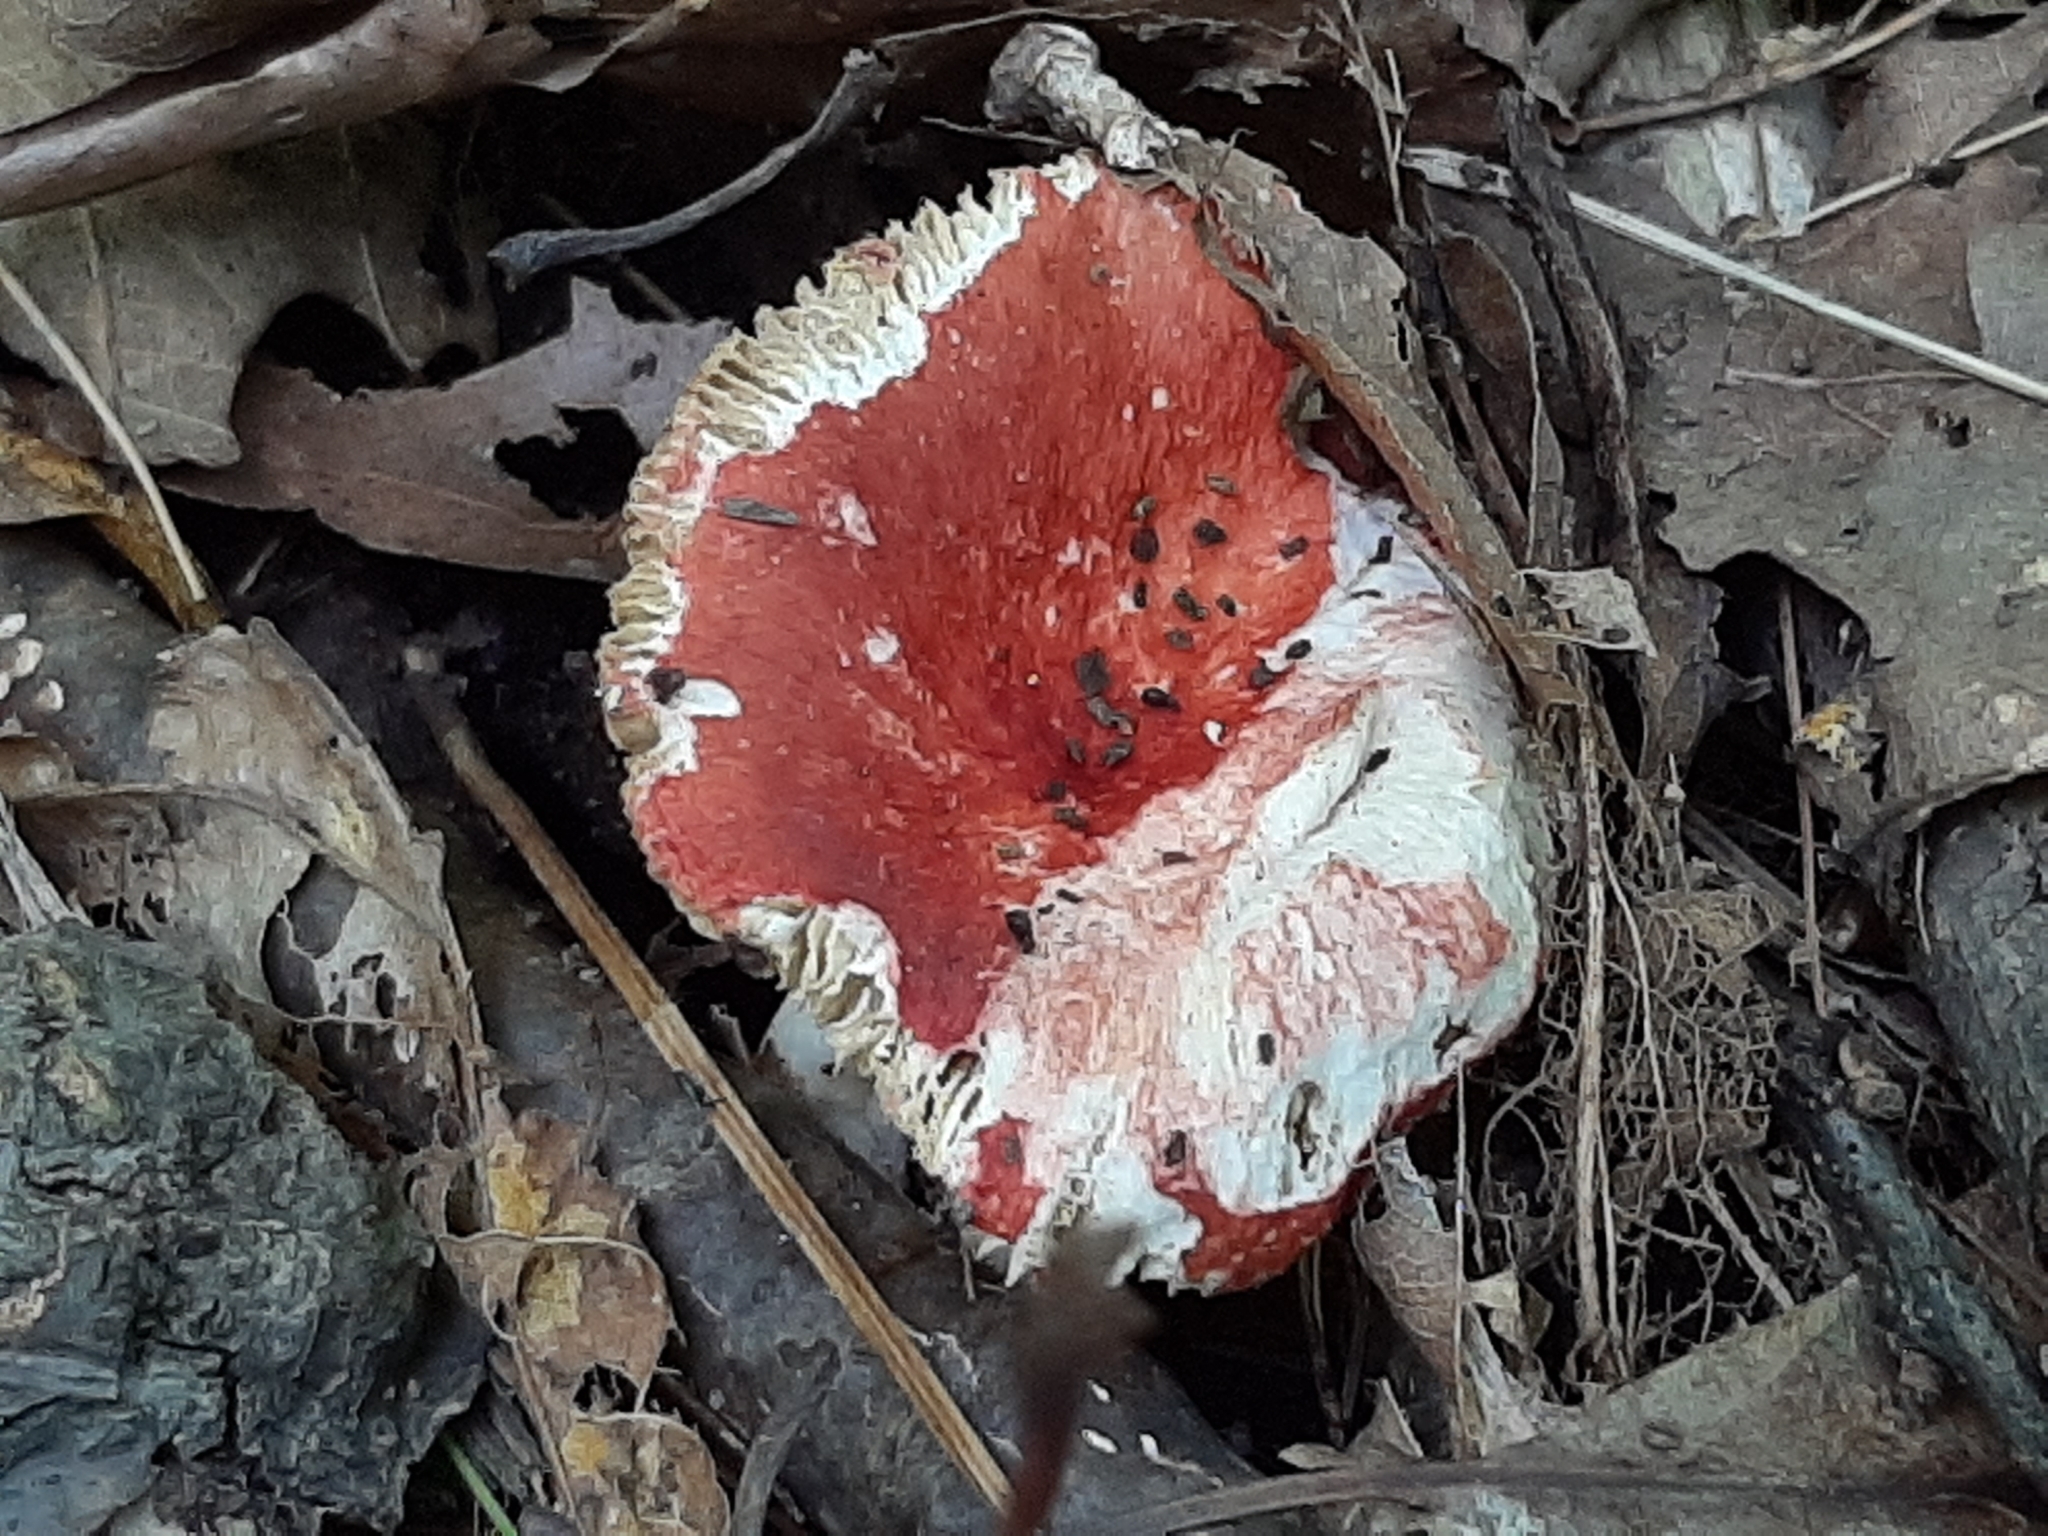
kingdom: Fungi
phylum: Basidiomycota
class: Agaricomycetes
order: Russulales
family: Russulaceae
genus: Russula
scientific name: Russula
